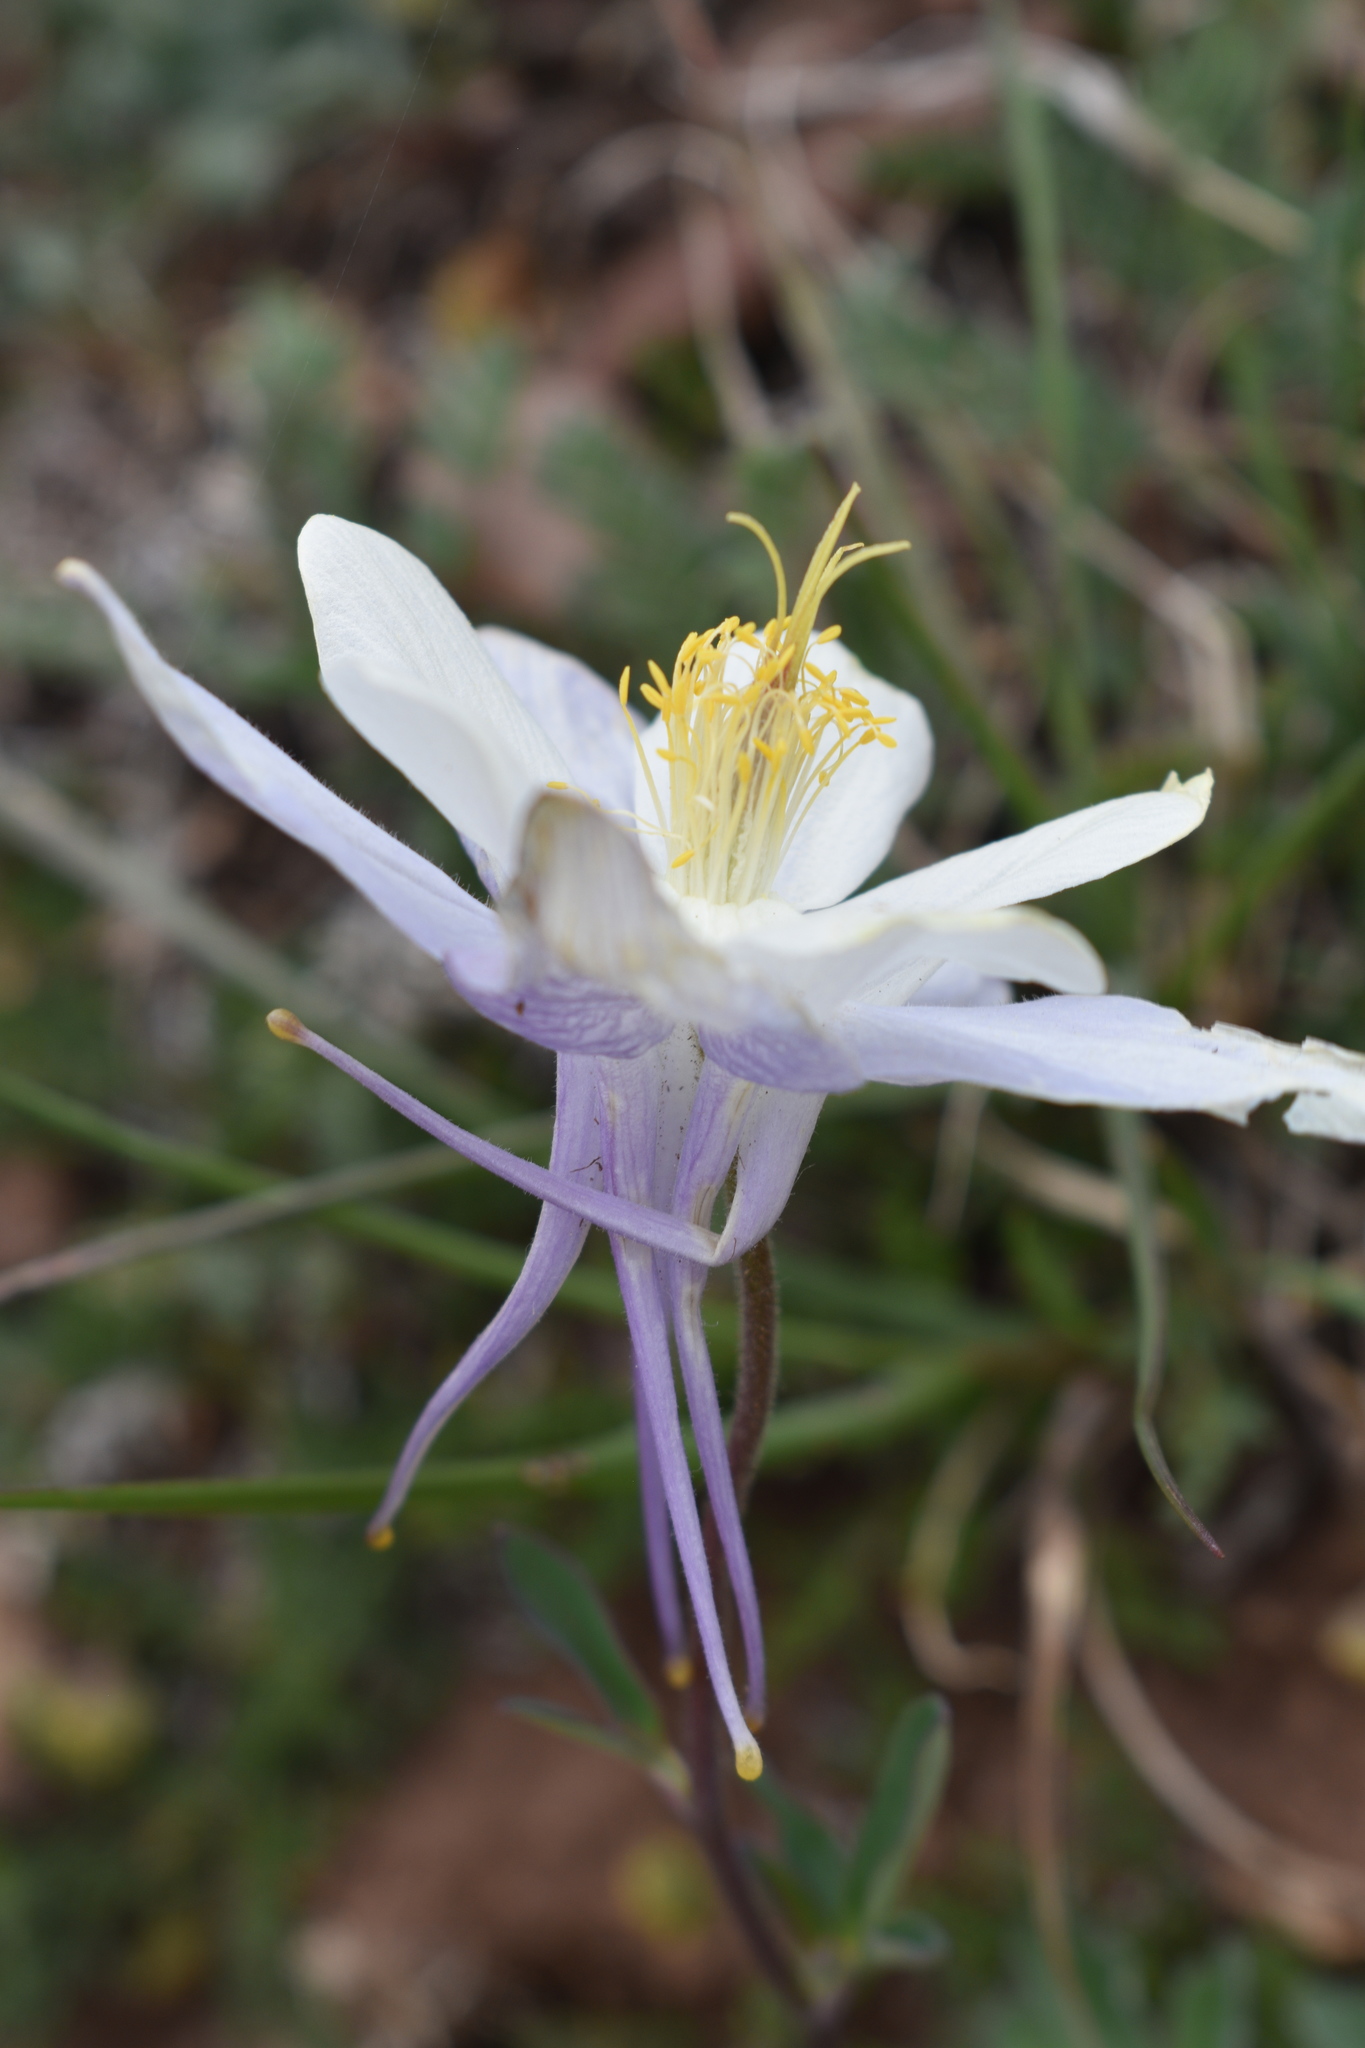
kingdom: Plantae
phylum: Tracheophyta
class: Magnoliopsida
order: Ranunculales
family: Ranunculaceae
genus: Aquilegia
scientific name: Aquilegia coerulea
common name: Rocky mountain columbine
